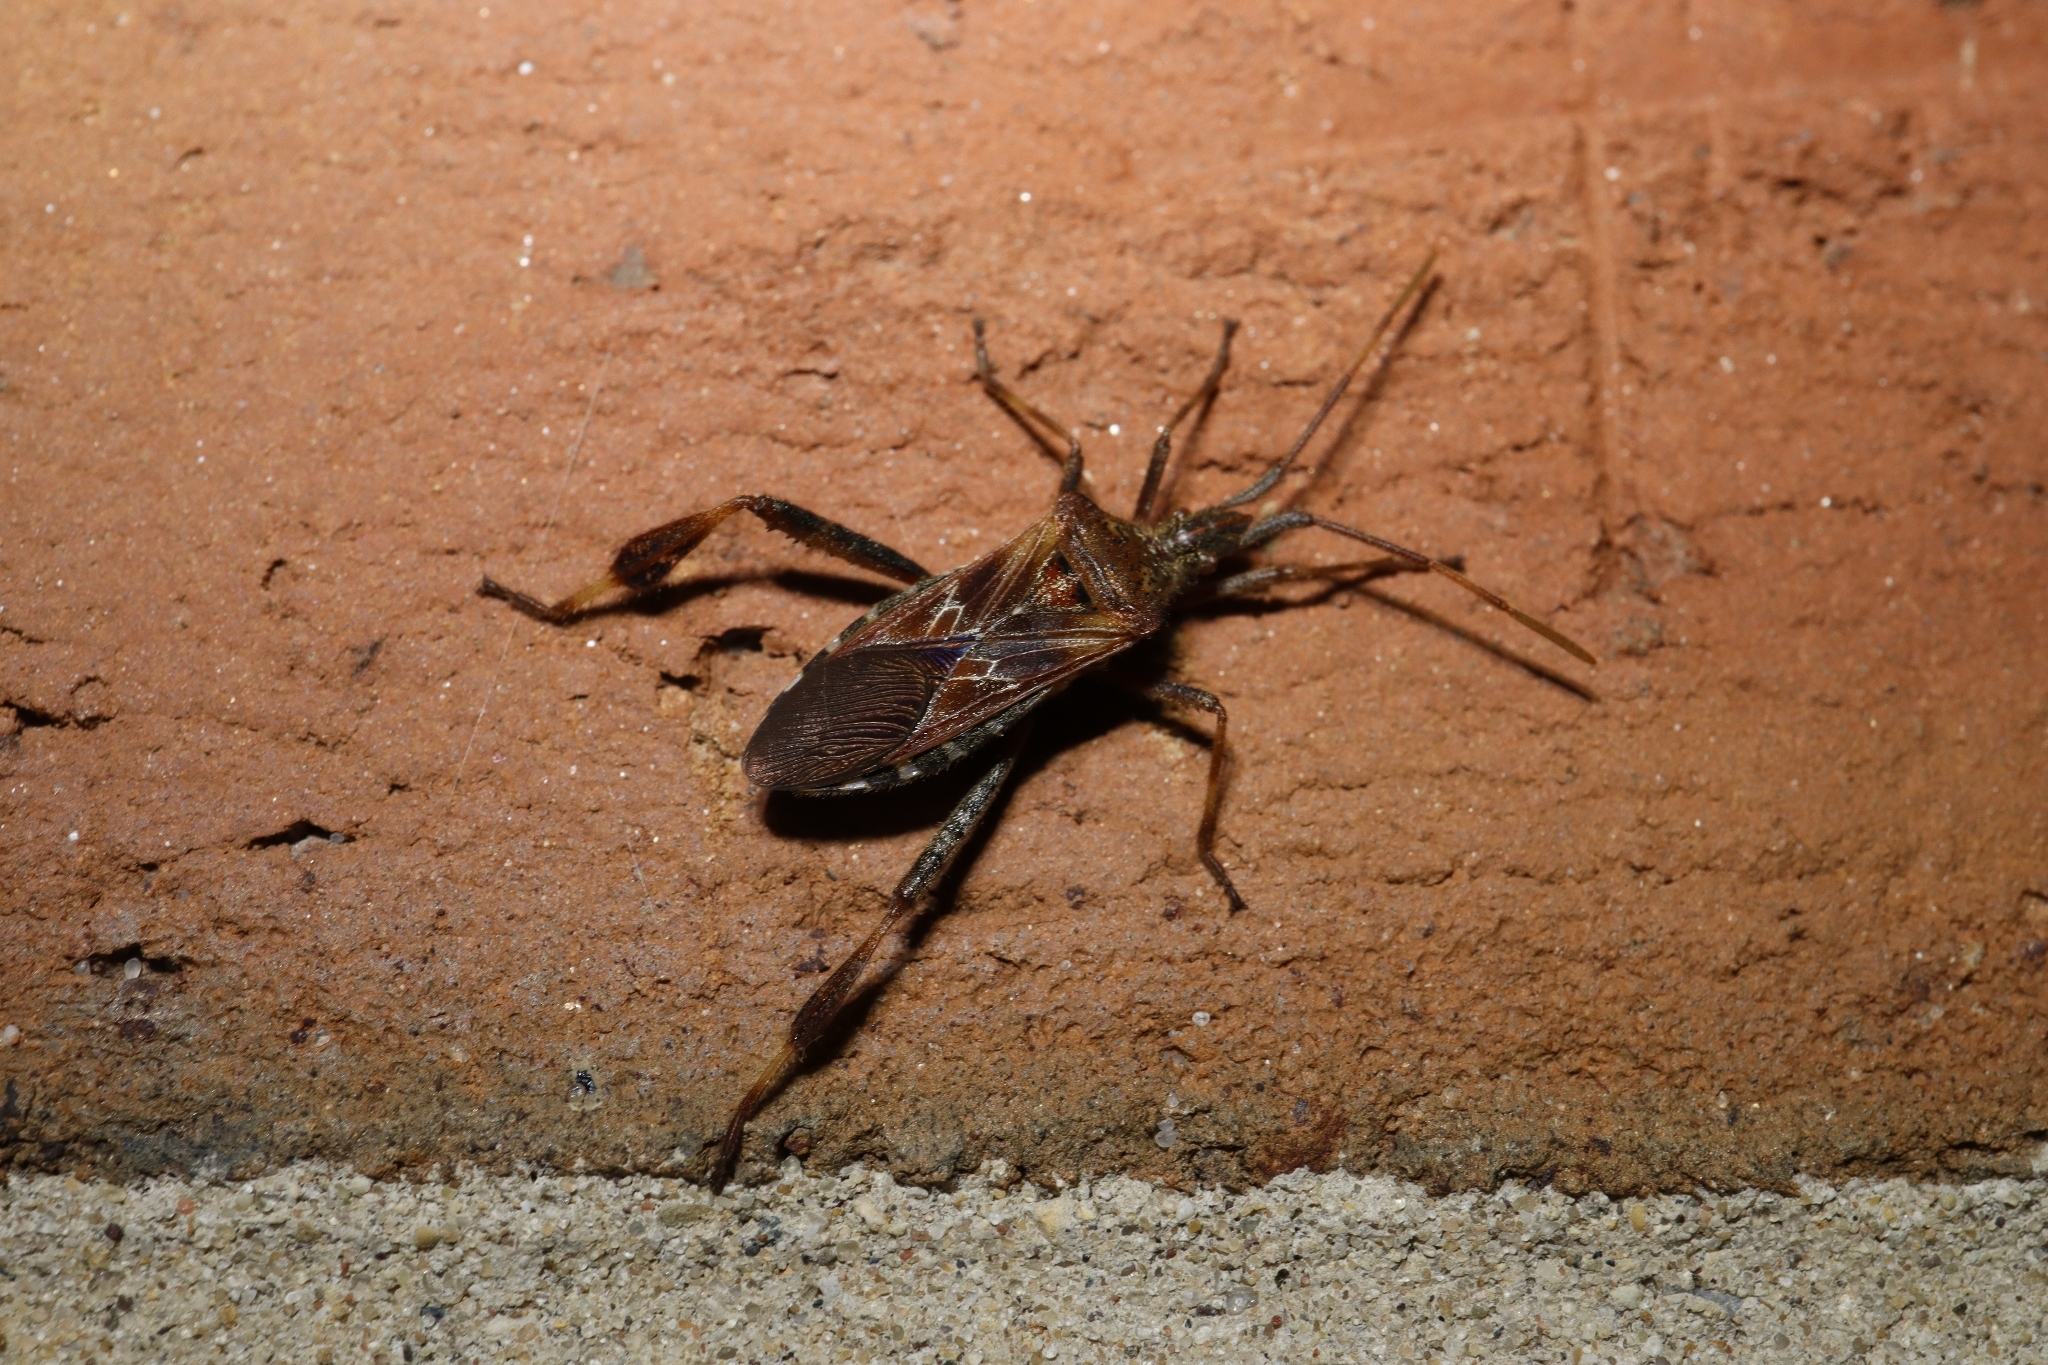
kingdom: Animalia
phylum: Arthropoda
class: Insecta
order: Hemiptera
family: Coreidae
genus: Leptoglossus
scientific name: Leptoglossus occidentalis
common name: Western conifer-seed bug
